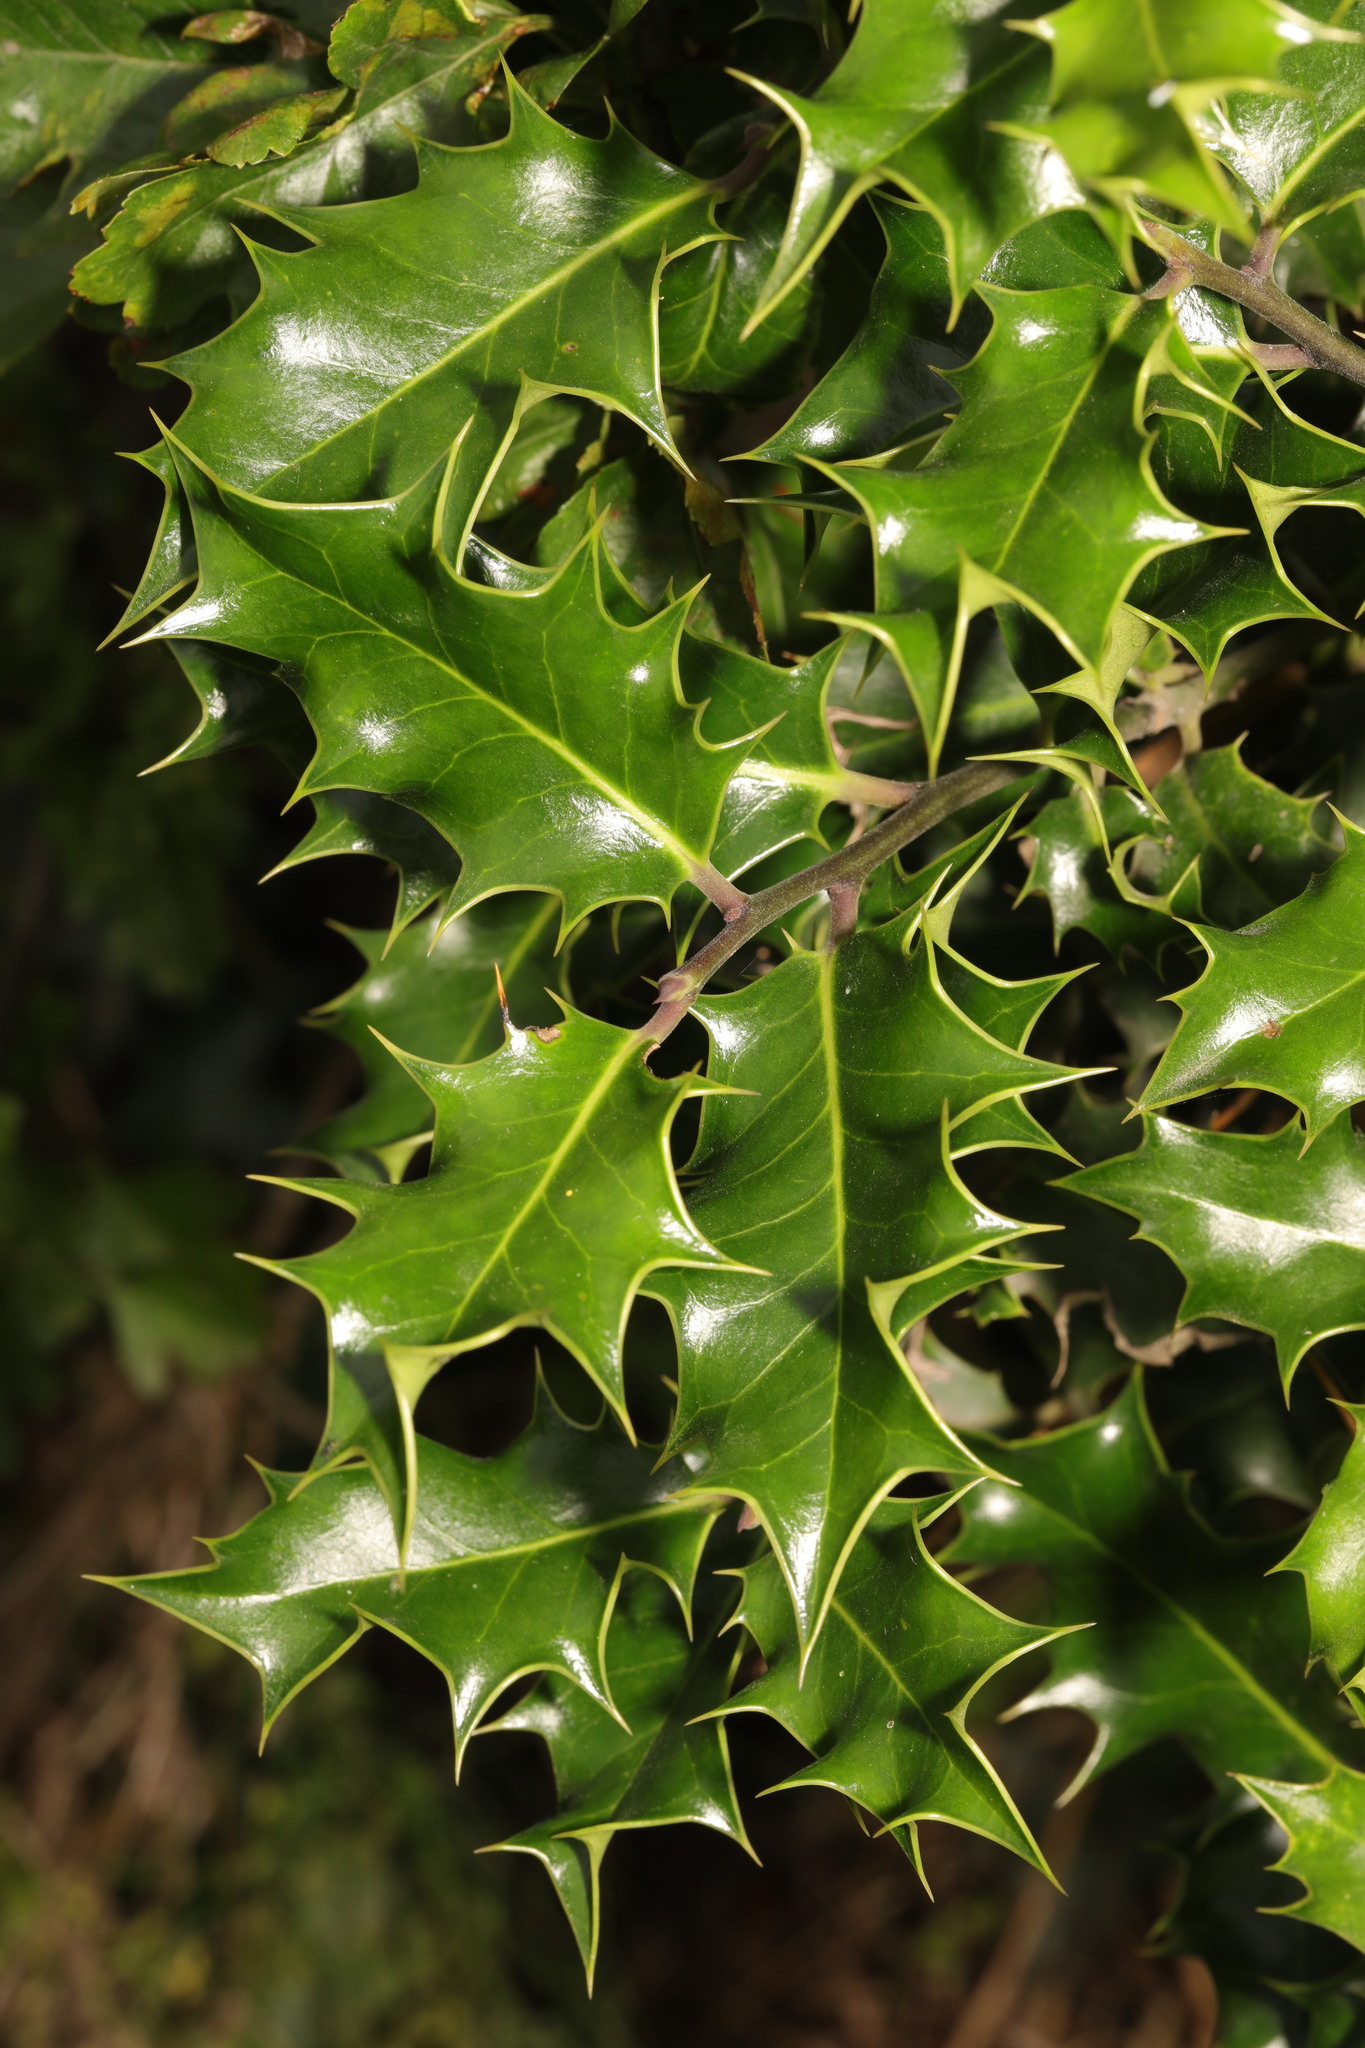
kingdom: Plantae
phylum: Tracheophyta
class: Magnoliopsida
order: Aquifoliales
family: Aquifoliaceae
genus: Ilex
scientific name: Ilex aquifolium
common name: English holly
